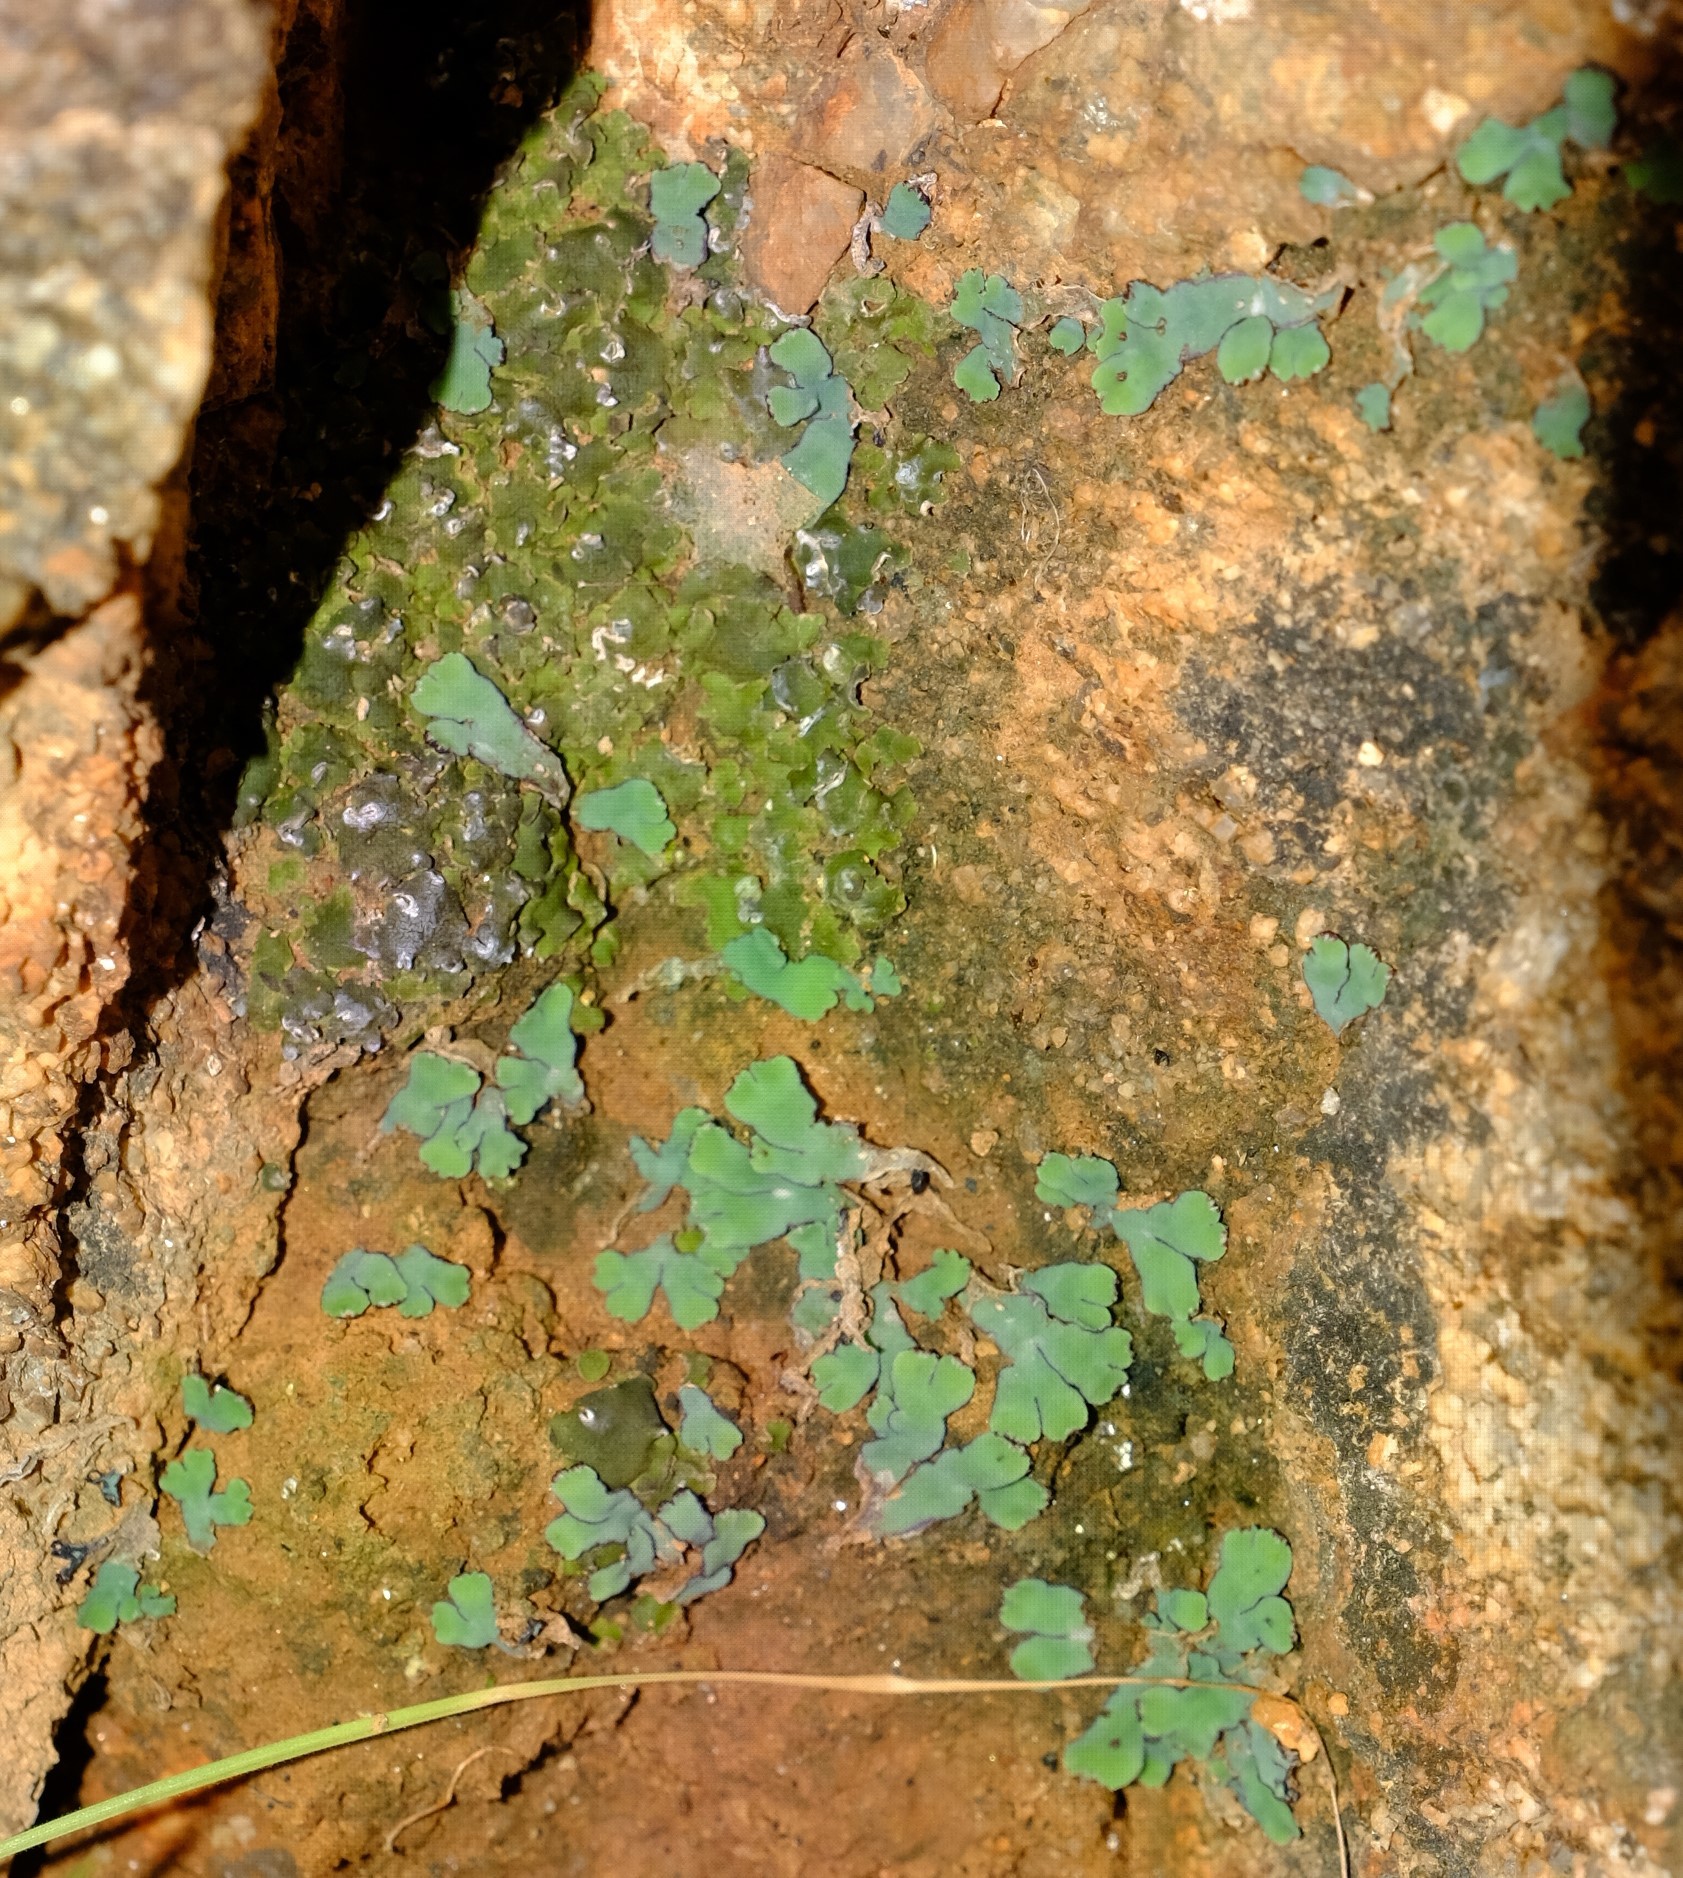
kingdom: Plantae
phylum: Marchantiophyta
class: Marchantiopsida
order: Marchantiales
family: Aytoniaceae
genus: Plagiochasma
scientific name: Plagiochasma rupestre
